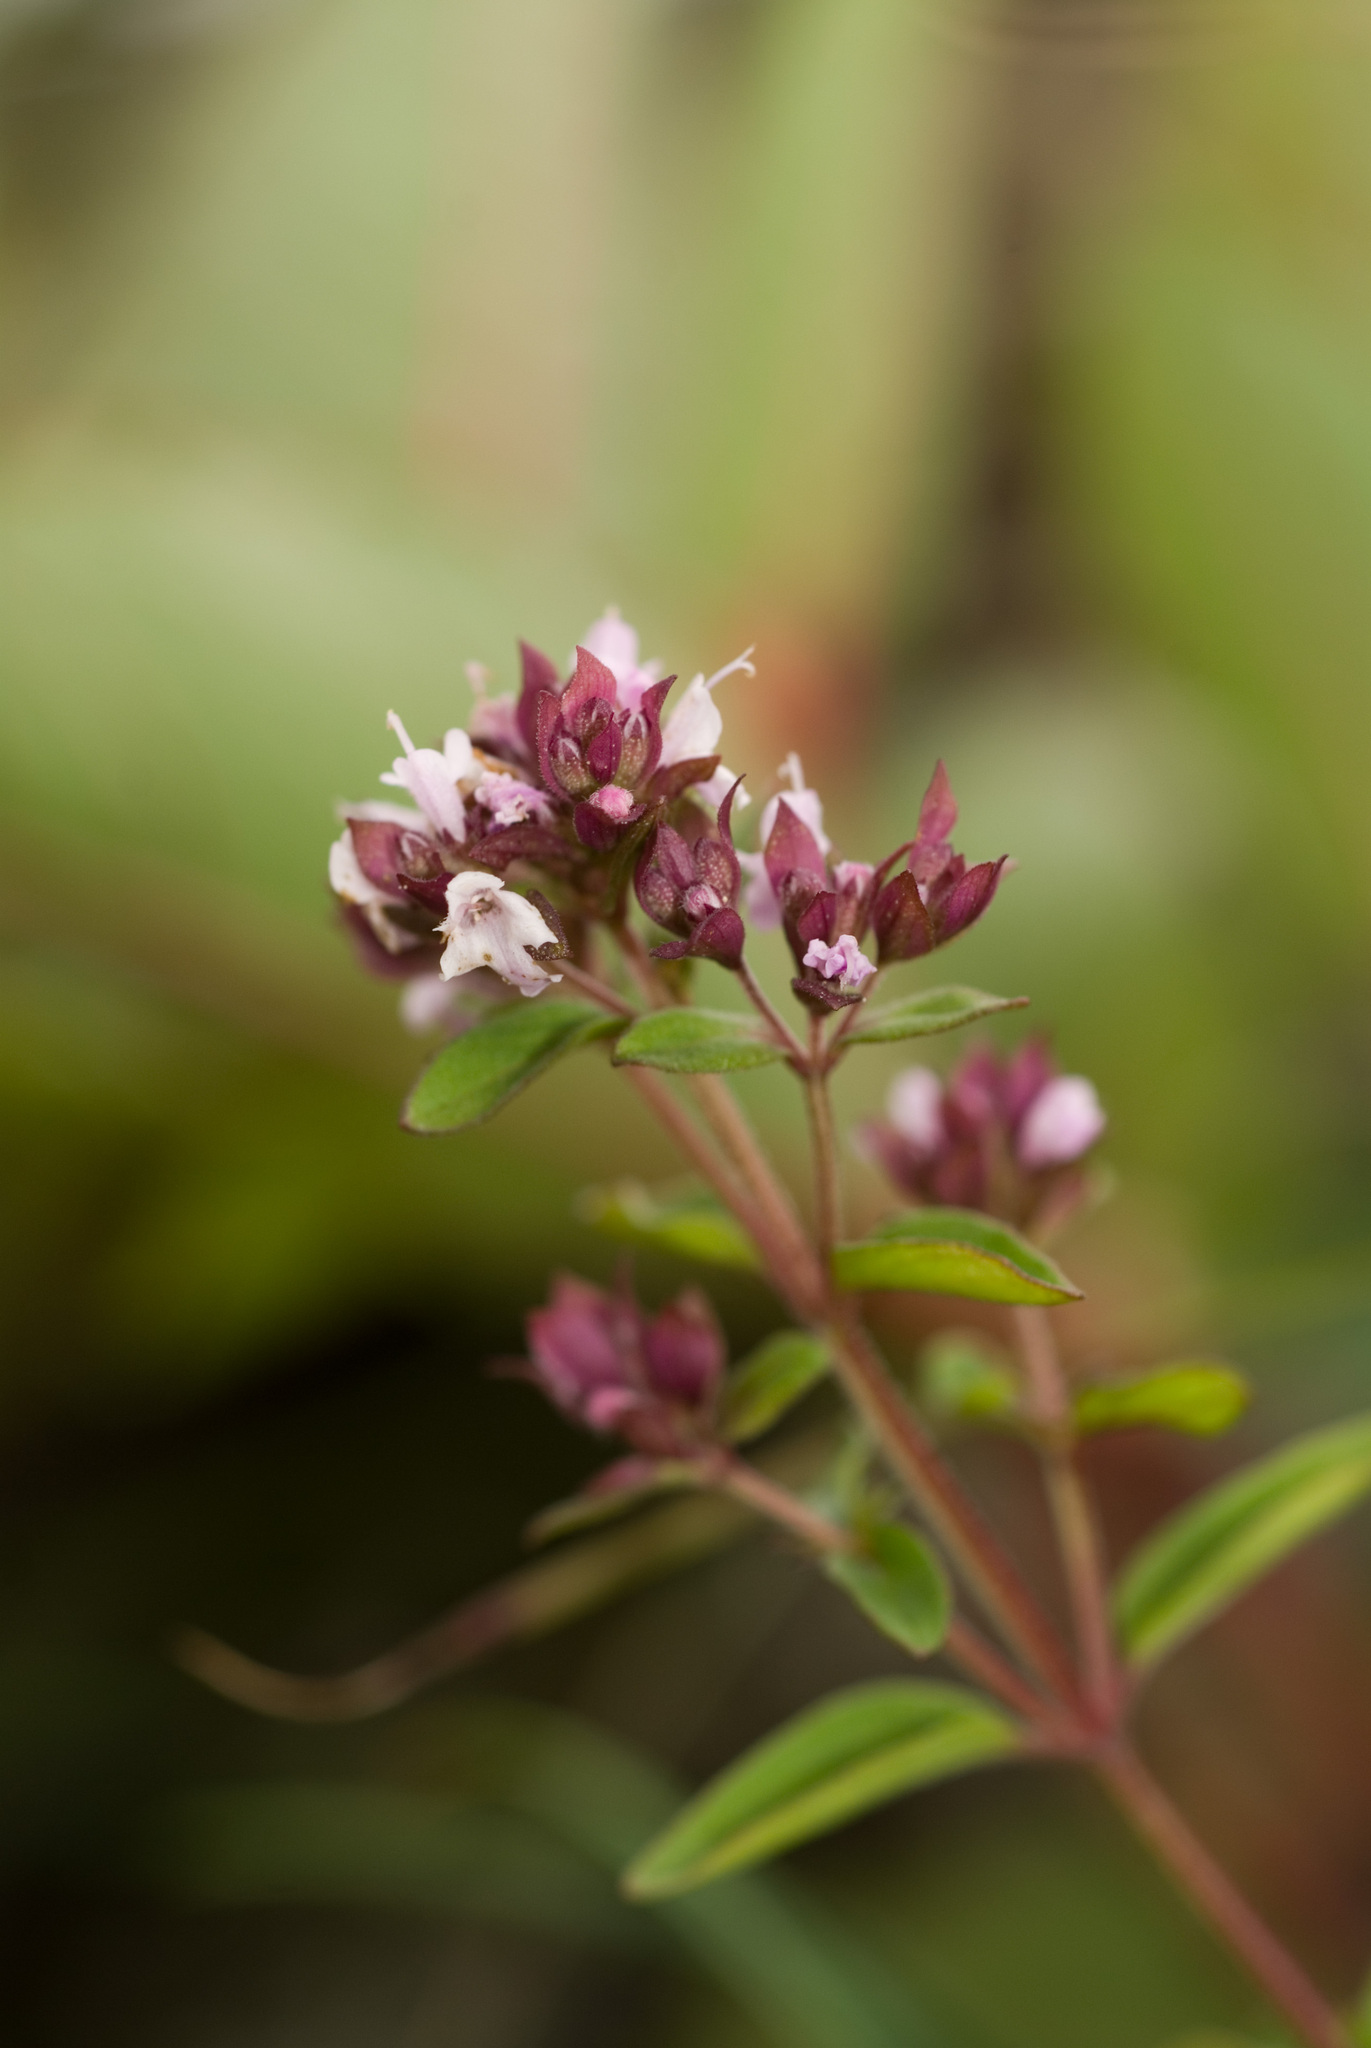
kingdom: Plantae
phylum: Tracheophyta
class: Magnoliopsida
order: Lamiales
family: Lamiaceae
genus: Origanum
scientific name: Origanum vulgare
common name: Wild marjoram
